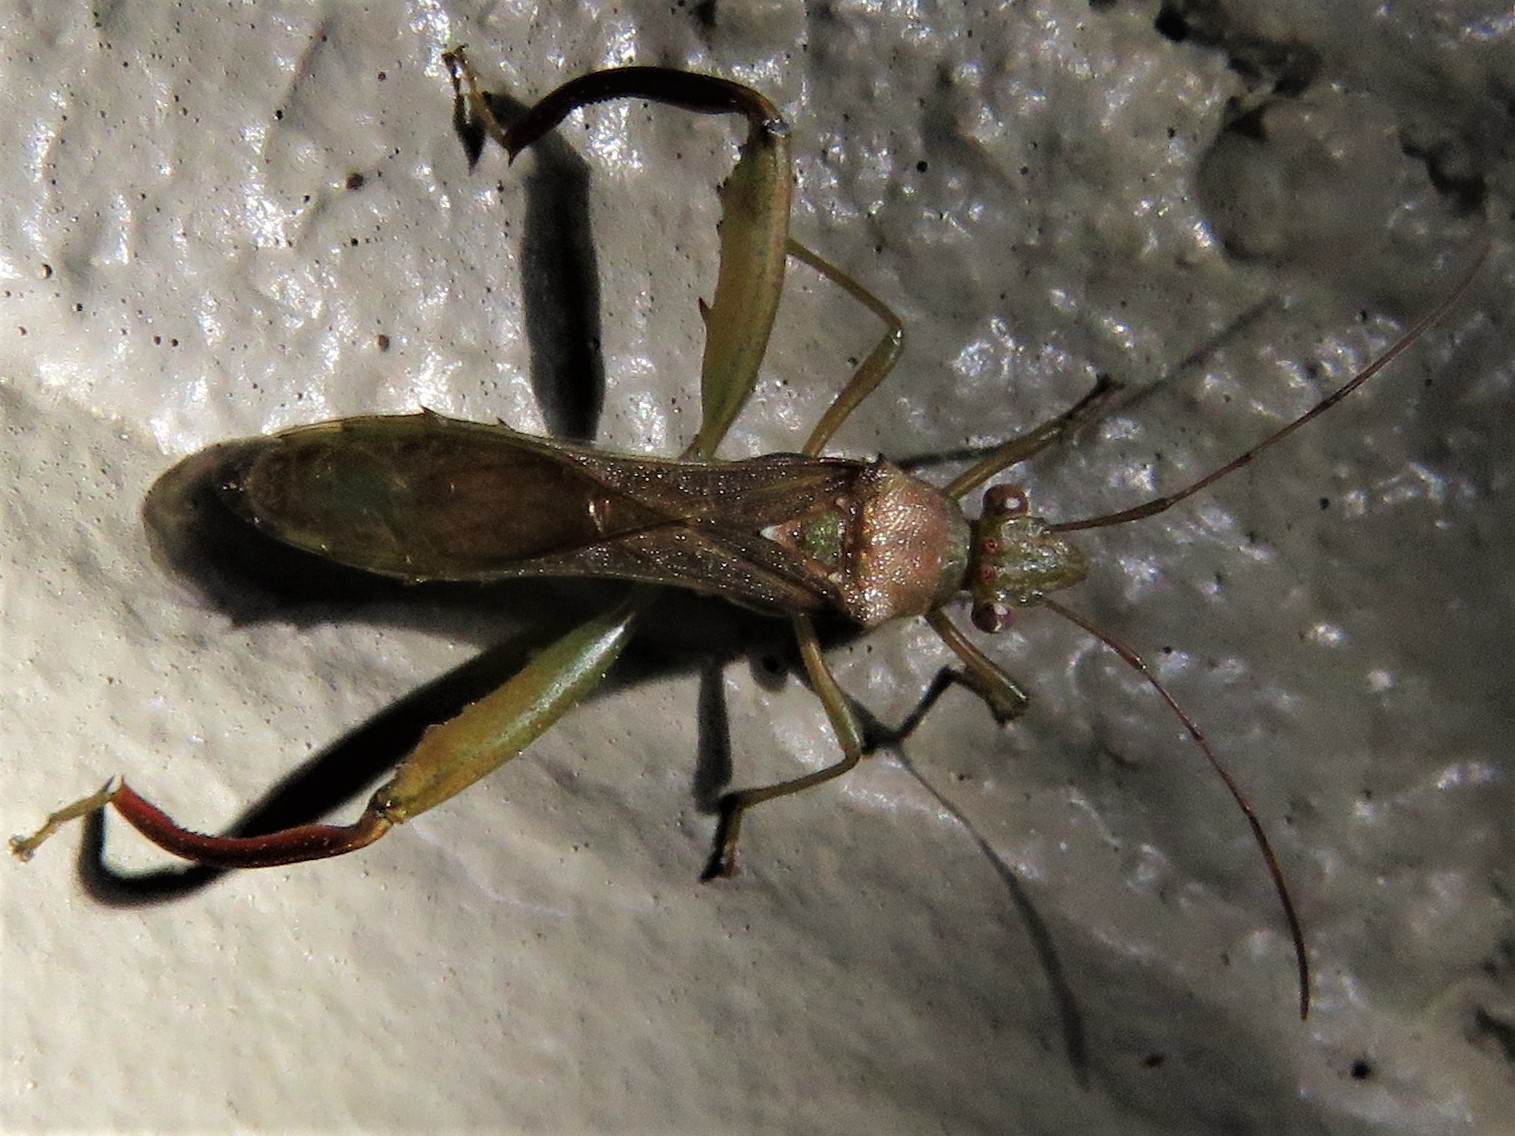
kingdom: Animalia
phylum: Arthropoda
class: Insecta
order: Hemiptera
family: Alydidae
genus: Hyalymenus
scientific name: Hyalymenus tarsatus
